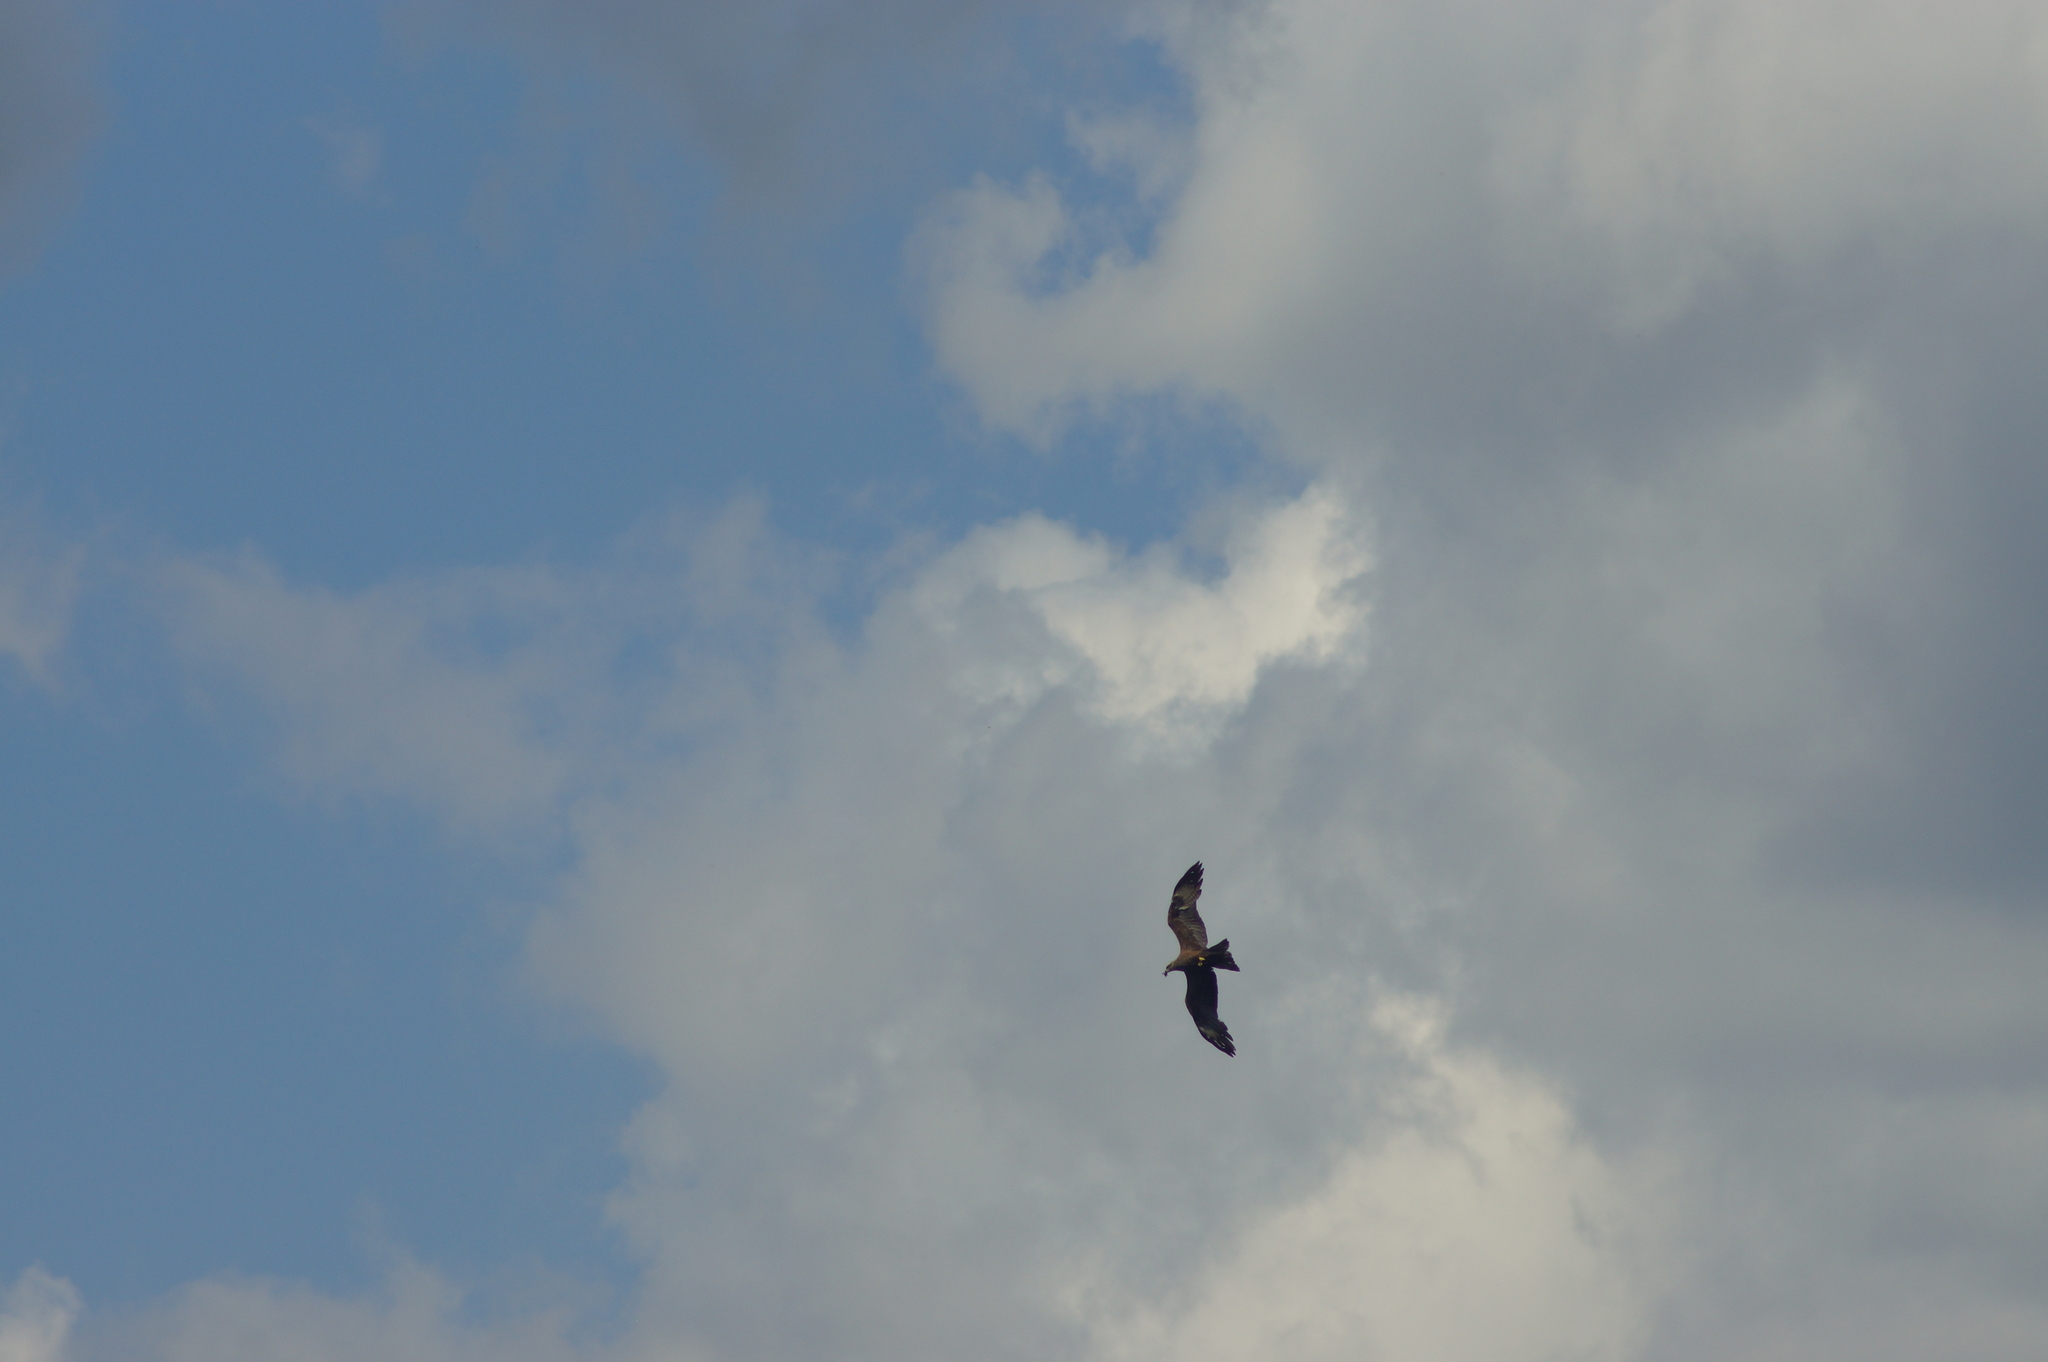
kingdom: Animalia
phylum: Chordata
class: Aves
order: Accipitriformes
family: Accipitridae
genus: Milvus
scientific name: Milvus migrans
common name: Black kite
